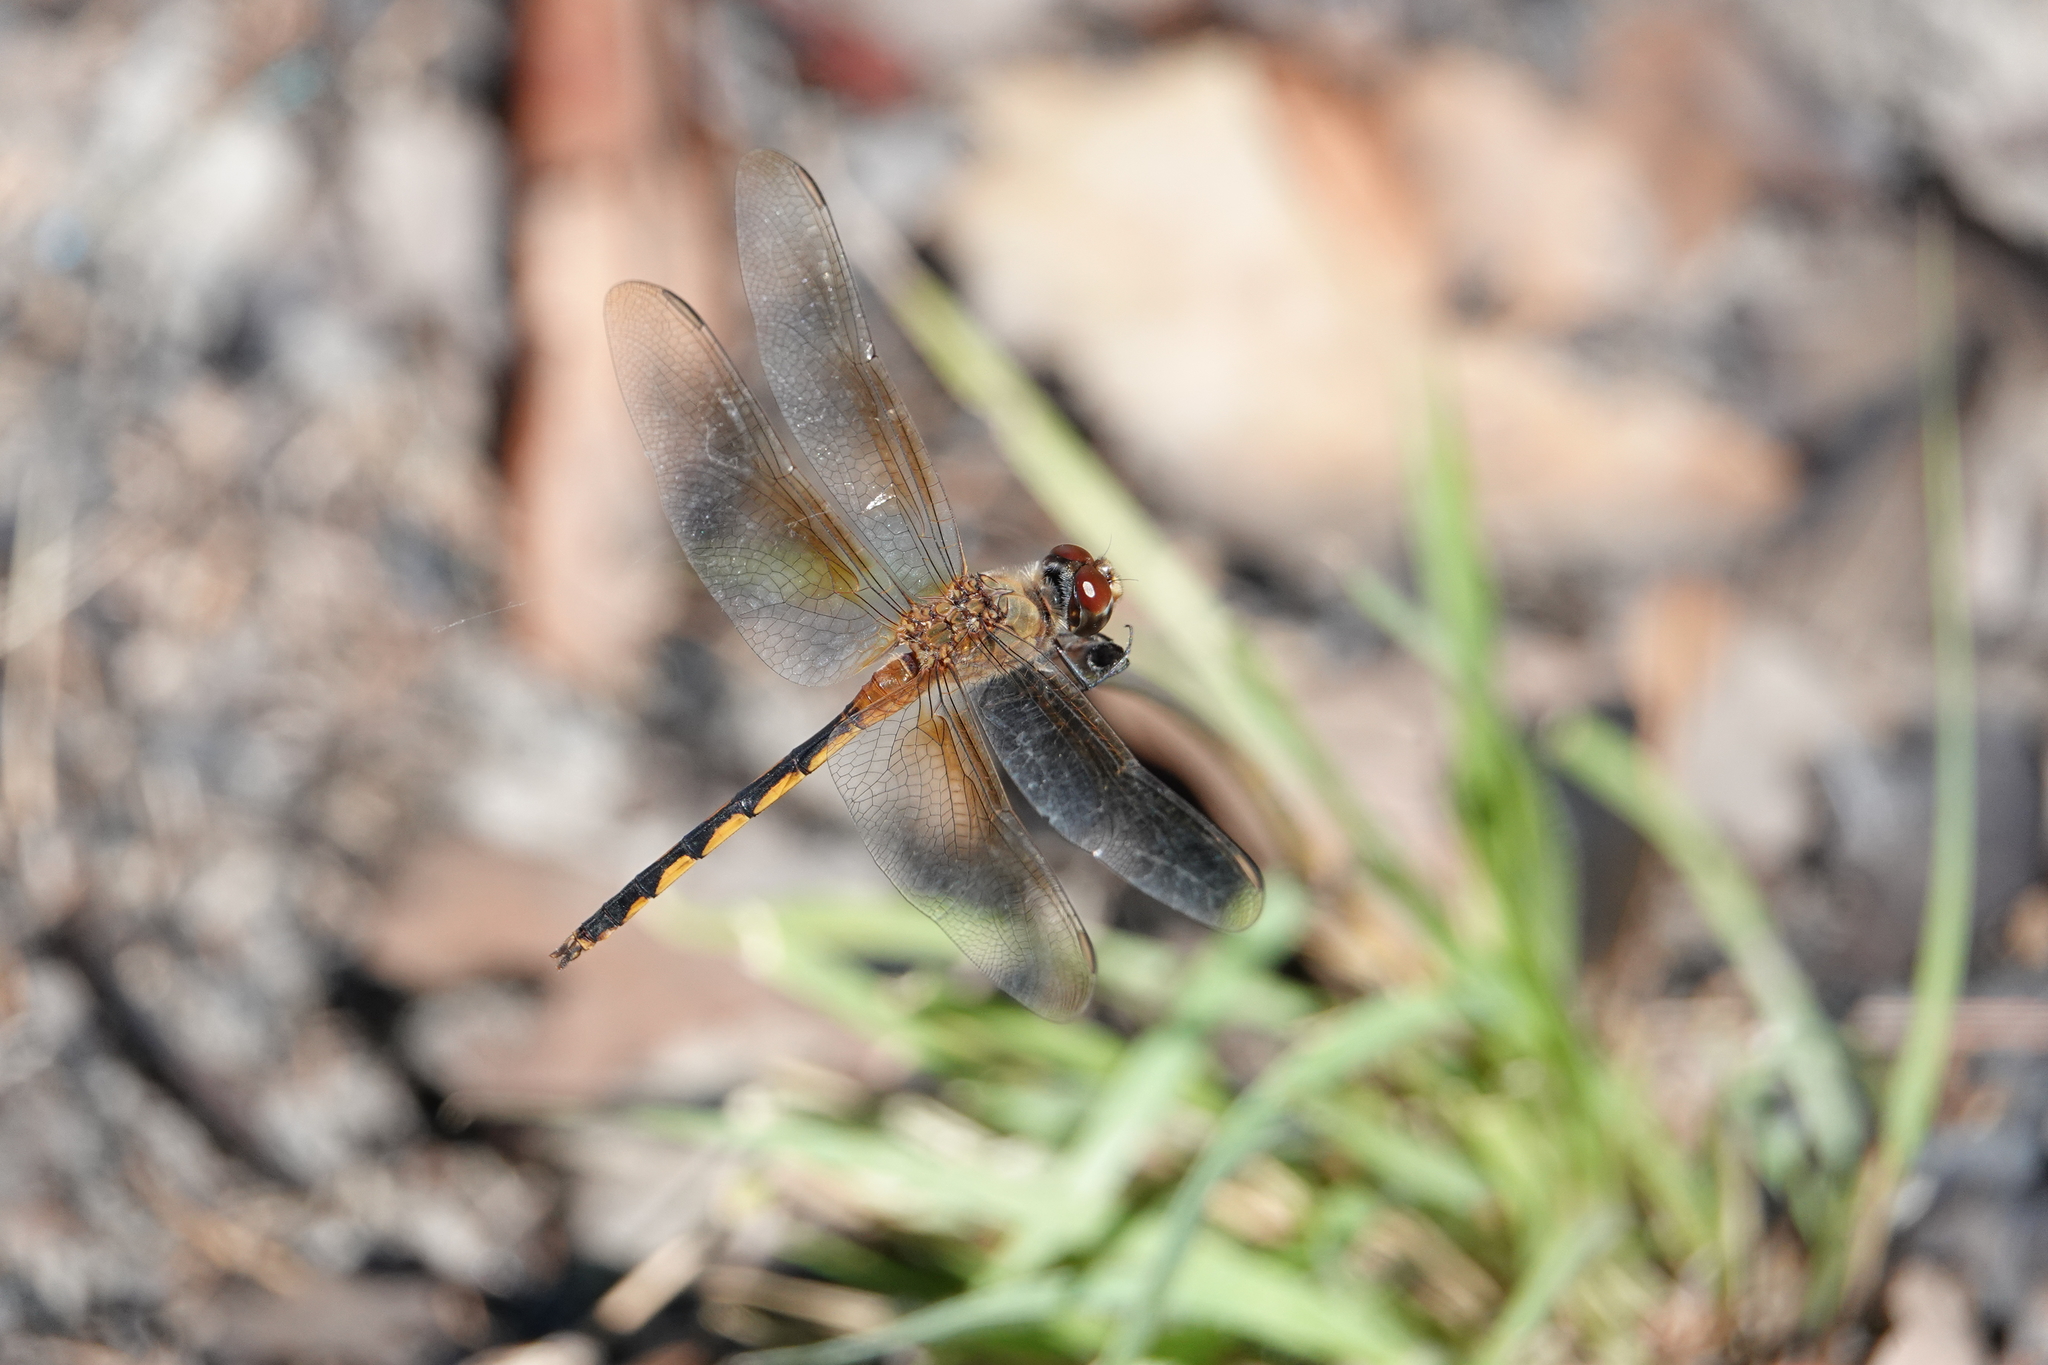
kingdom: Animalia
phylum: Arthropoda
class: Insecta
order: Odonata
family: Libellulidae
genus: Brachymesia
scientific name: Brachymesia herbida
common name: Tawny pennant
